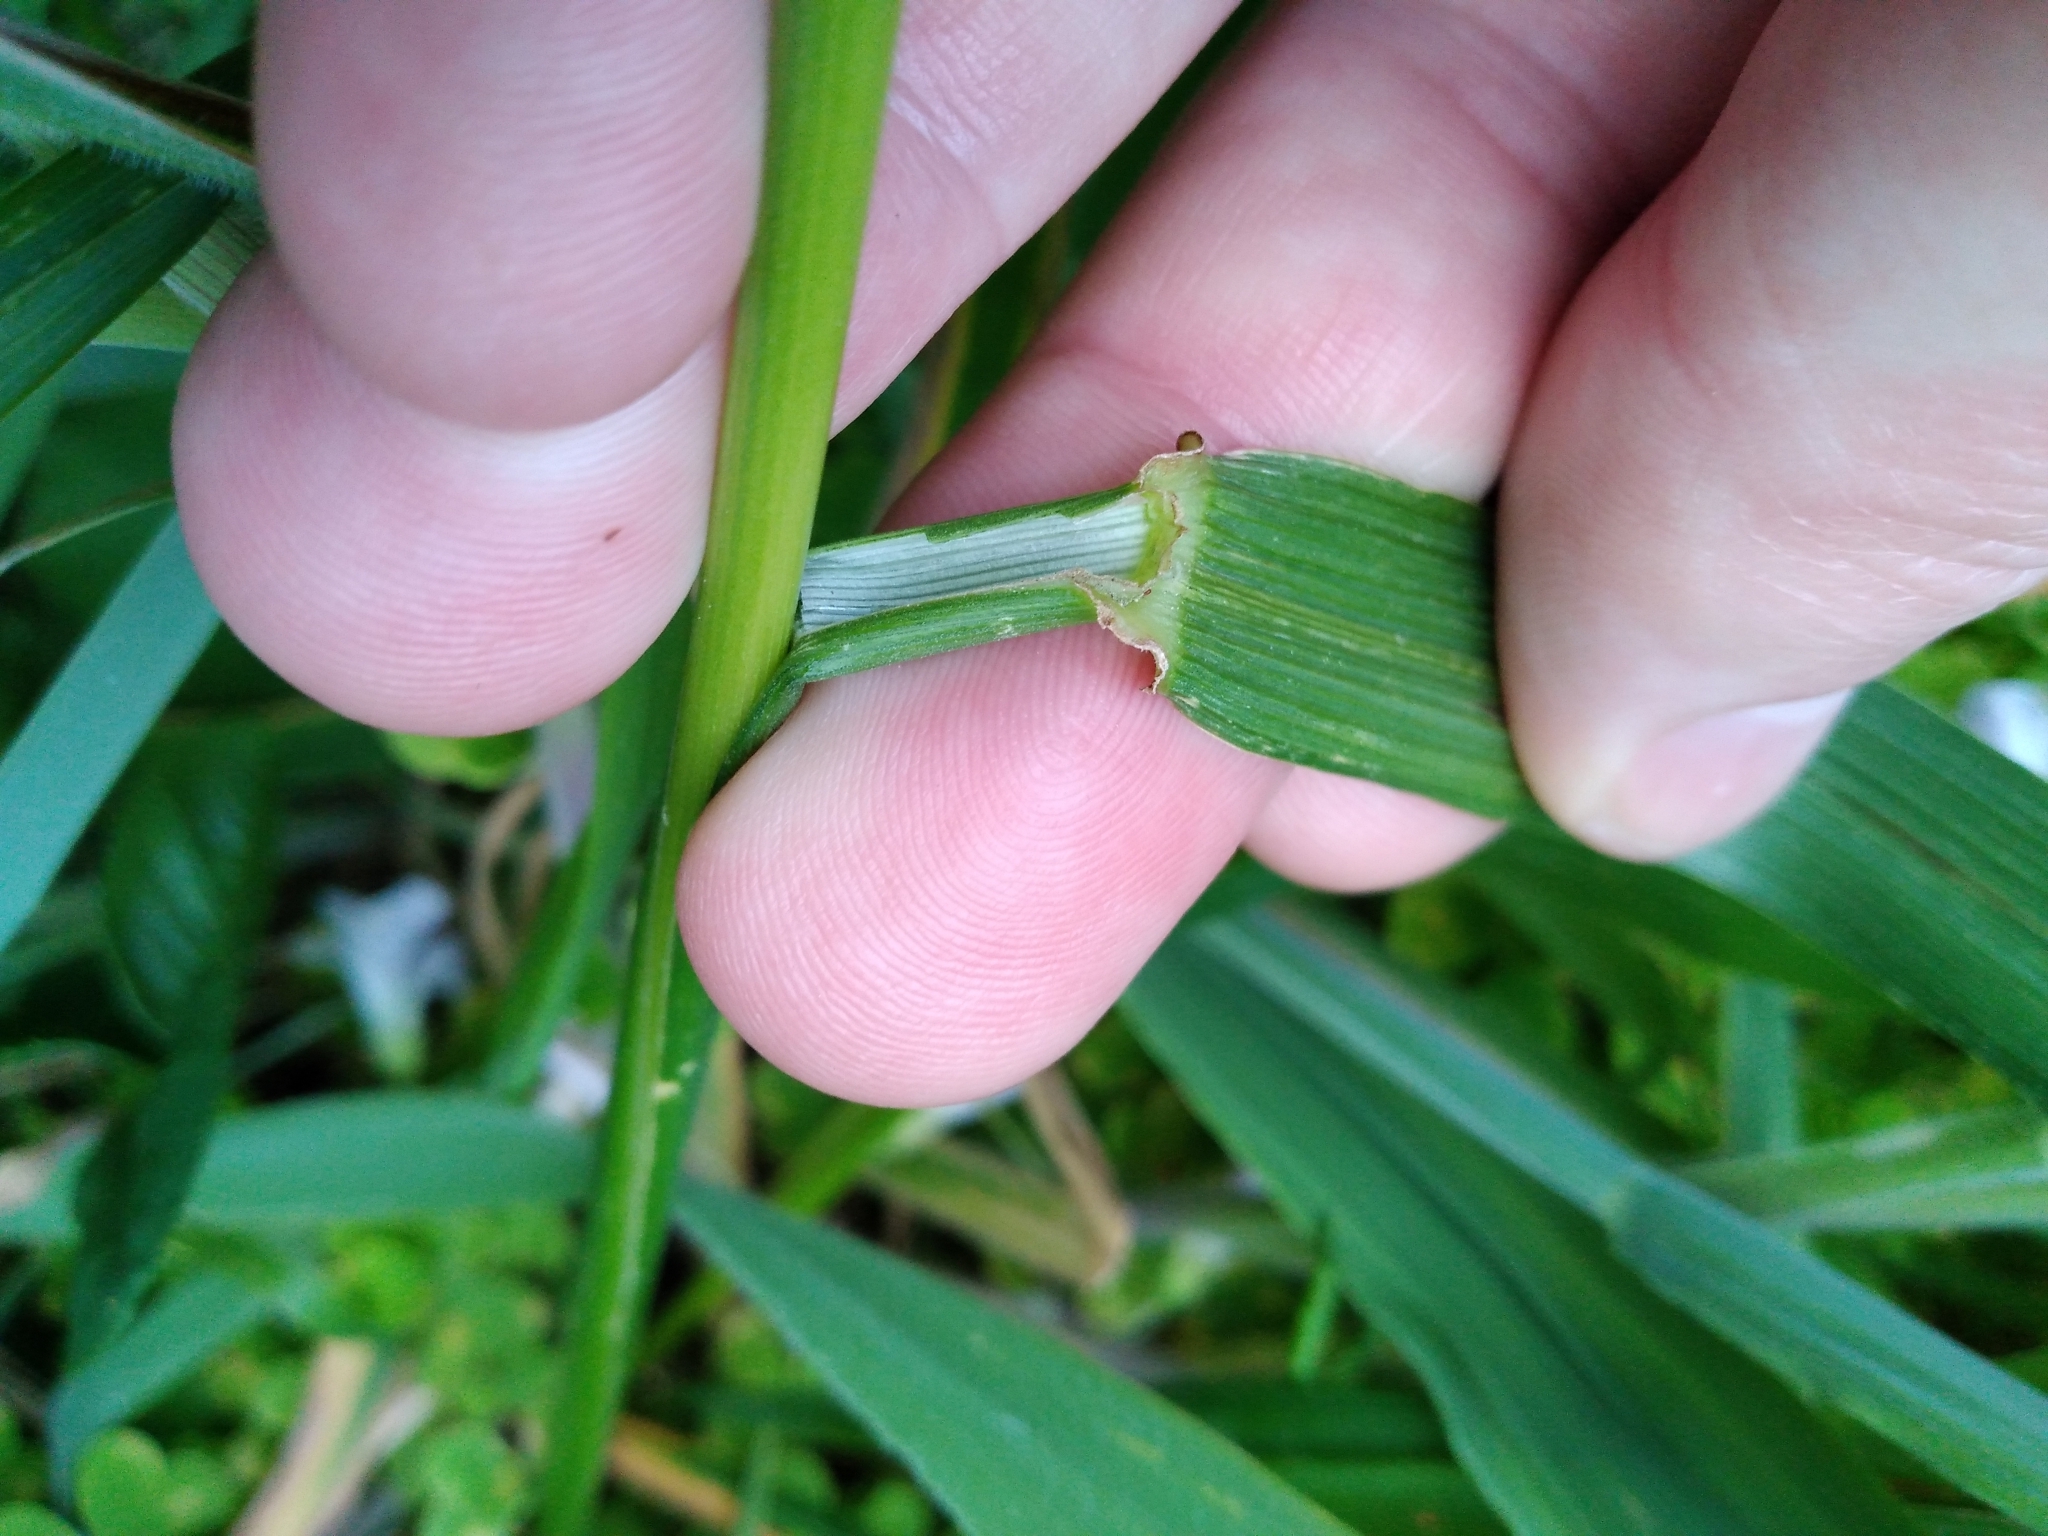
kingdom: Plantae
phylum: Tracheophyta
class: Liliopsida
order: Poales
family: Poaceae
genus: Lolium
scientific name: Lolium arundinaceum
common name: Reed fescue
